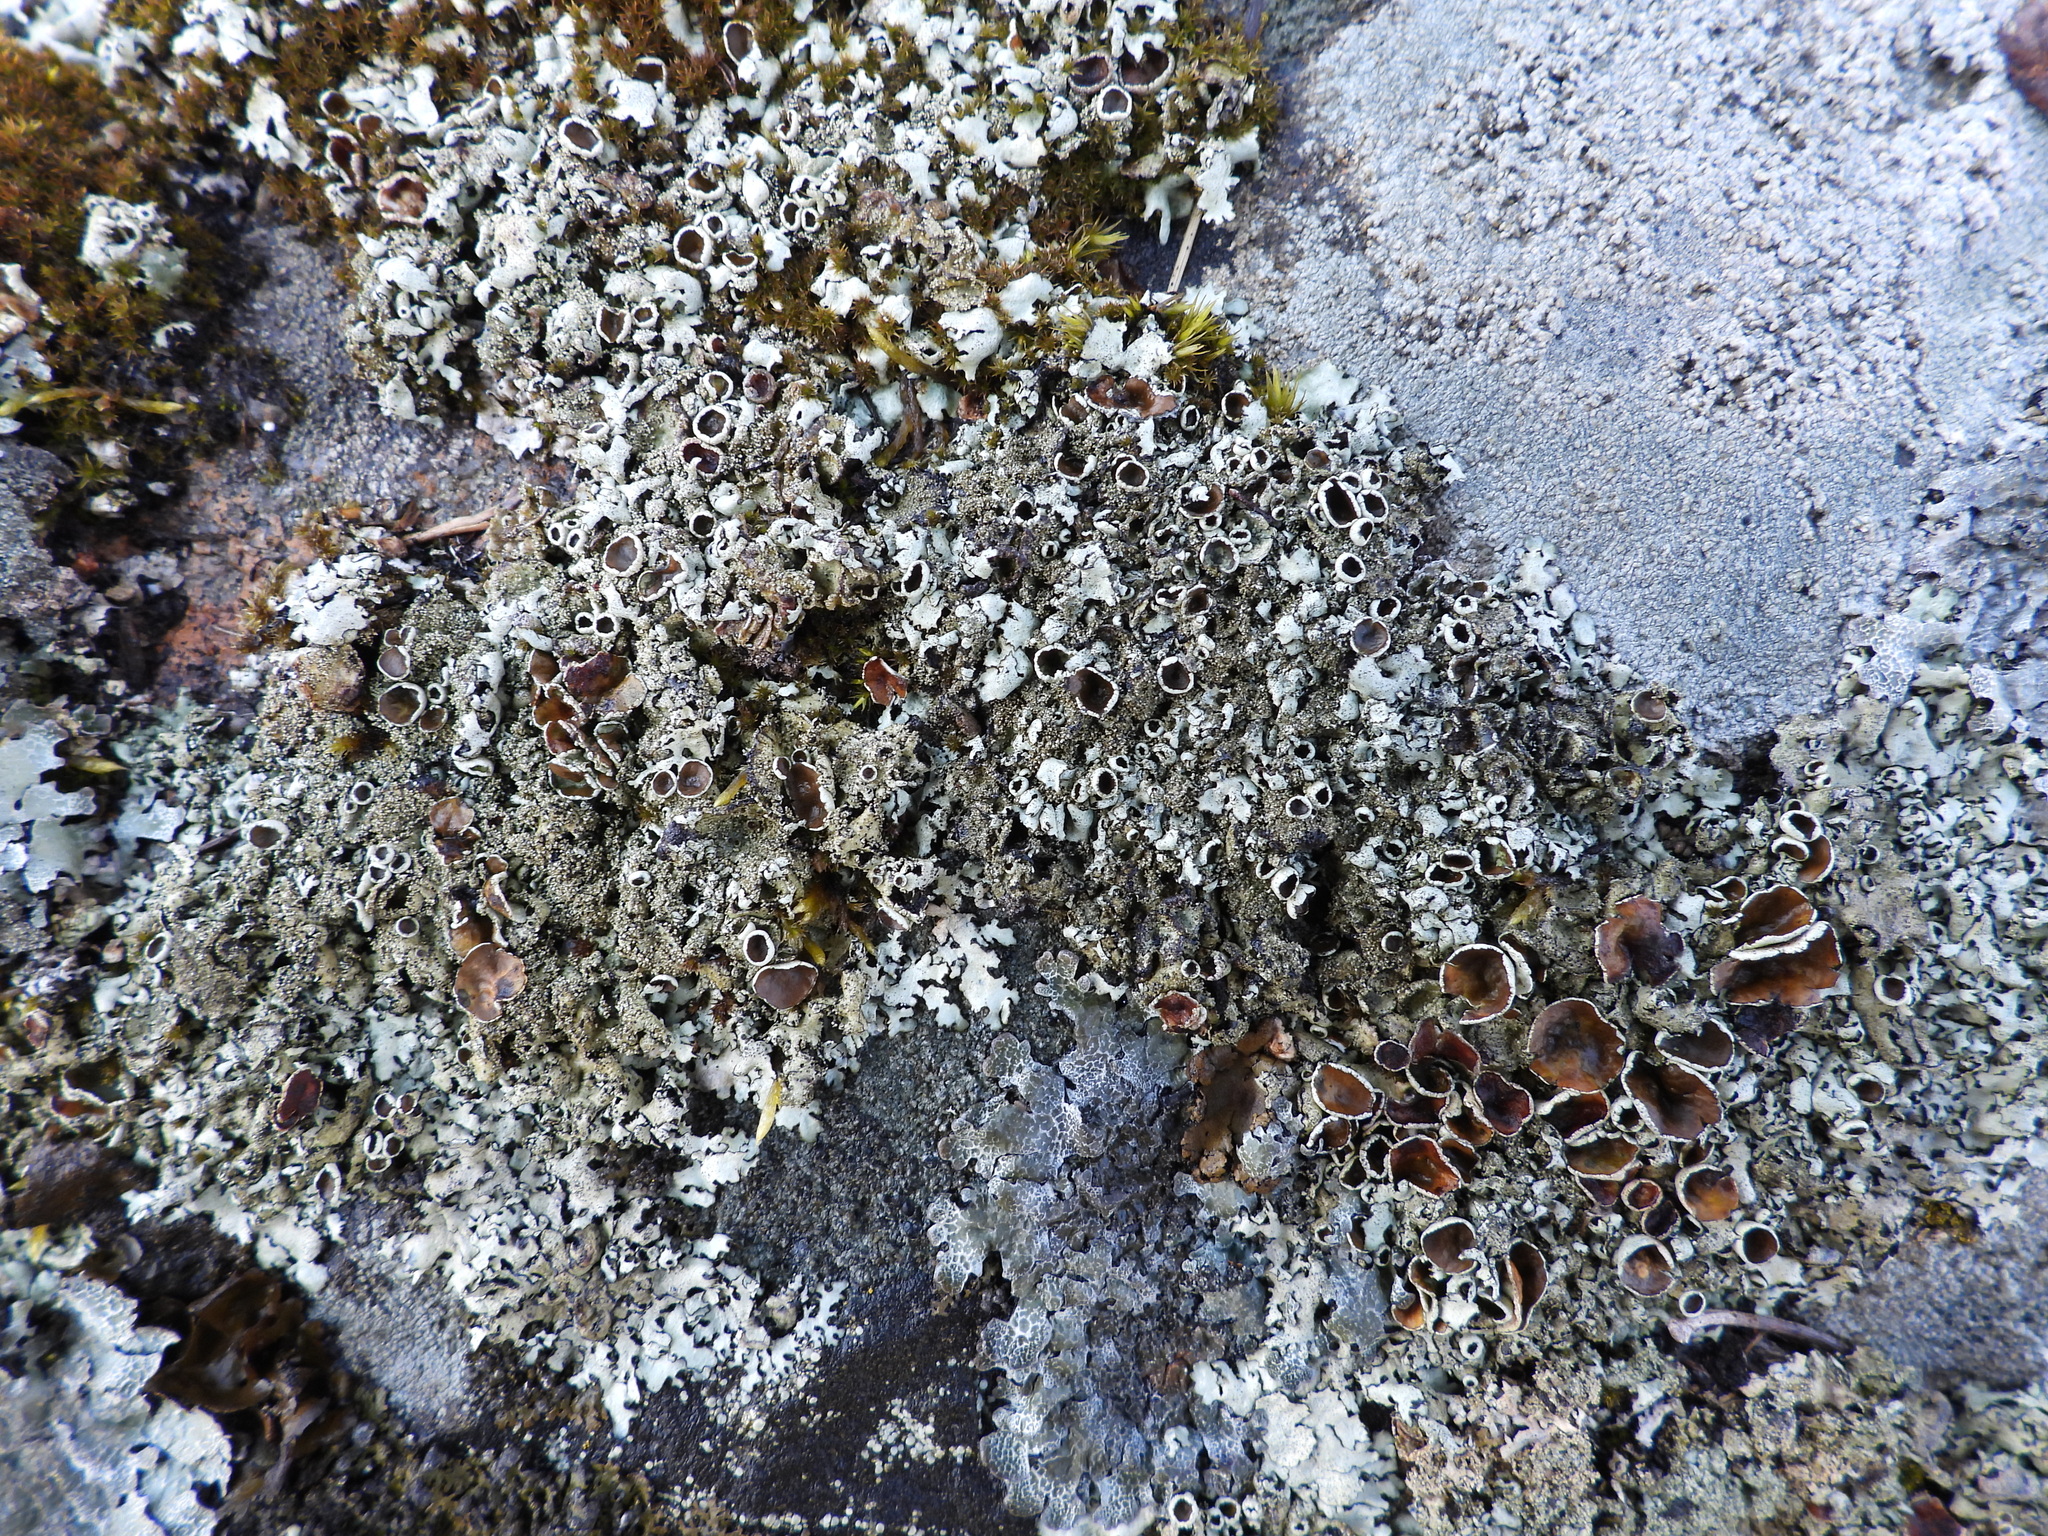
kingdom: Fungi
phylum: Ascomycota
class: Lecanoromycetes
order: Lecanorales
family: Parmeliaceae
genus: Xanthoparmelia
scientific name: Xanthoparmelia conspersa
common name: Peppered rock shield
